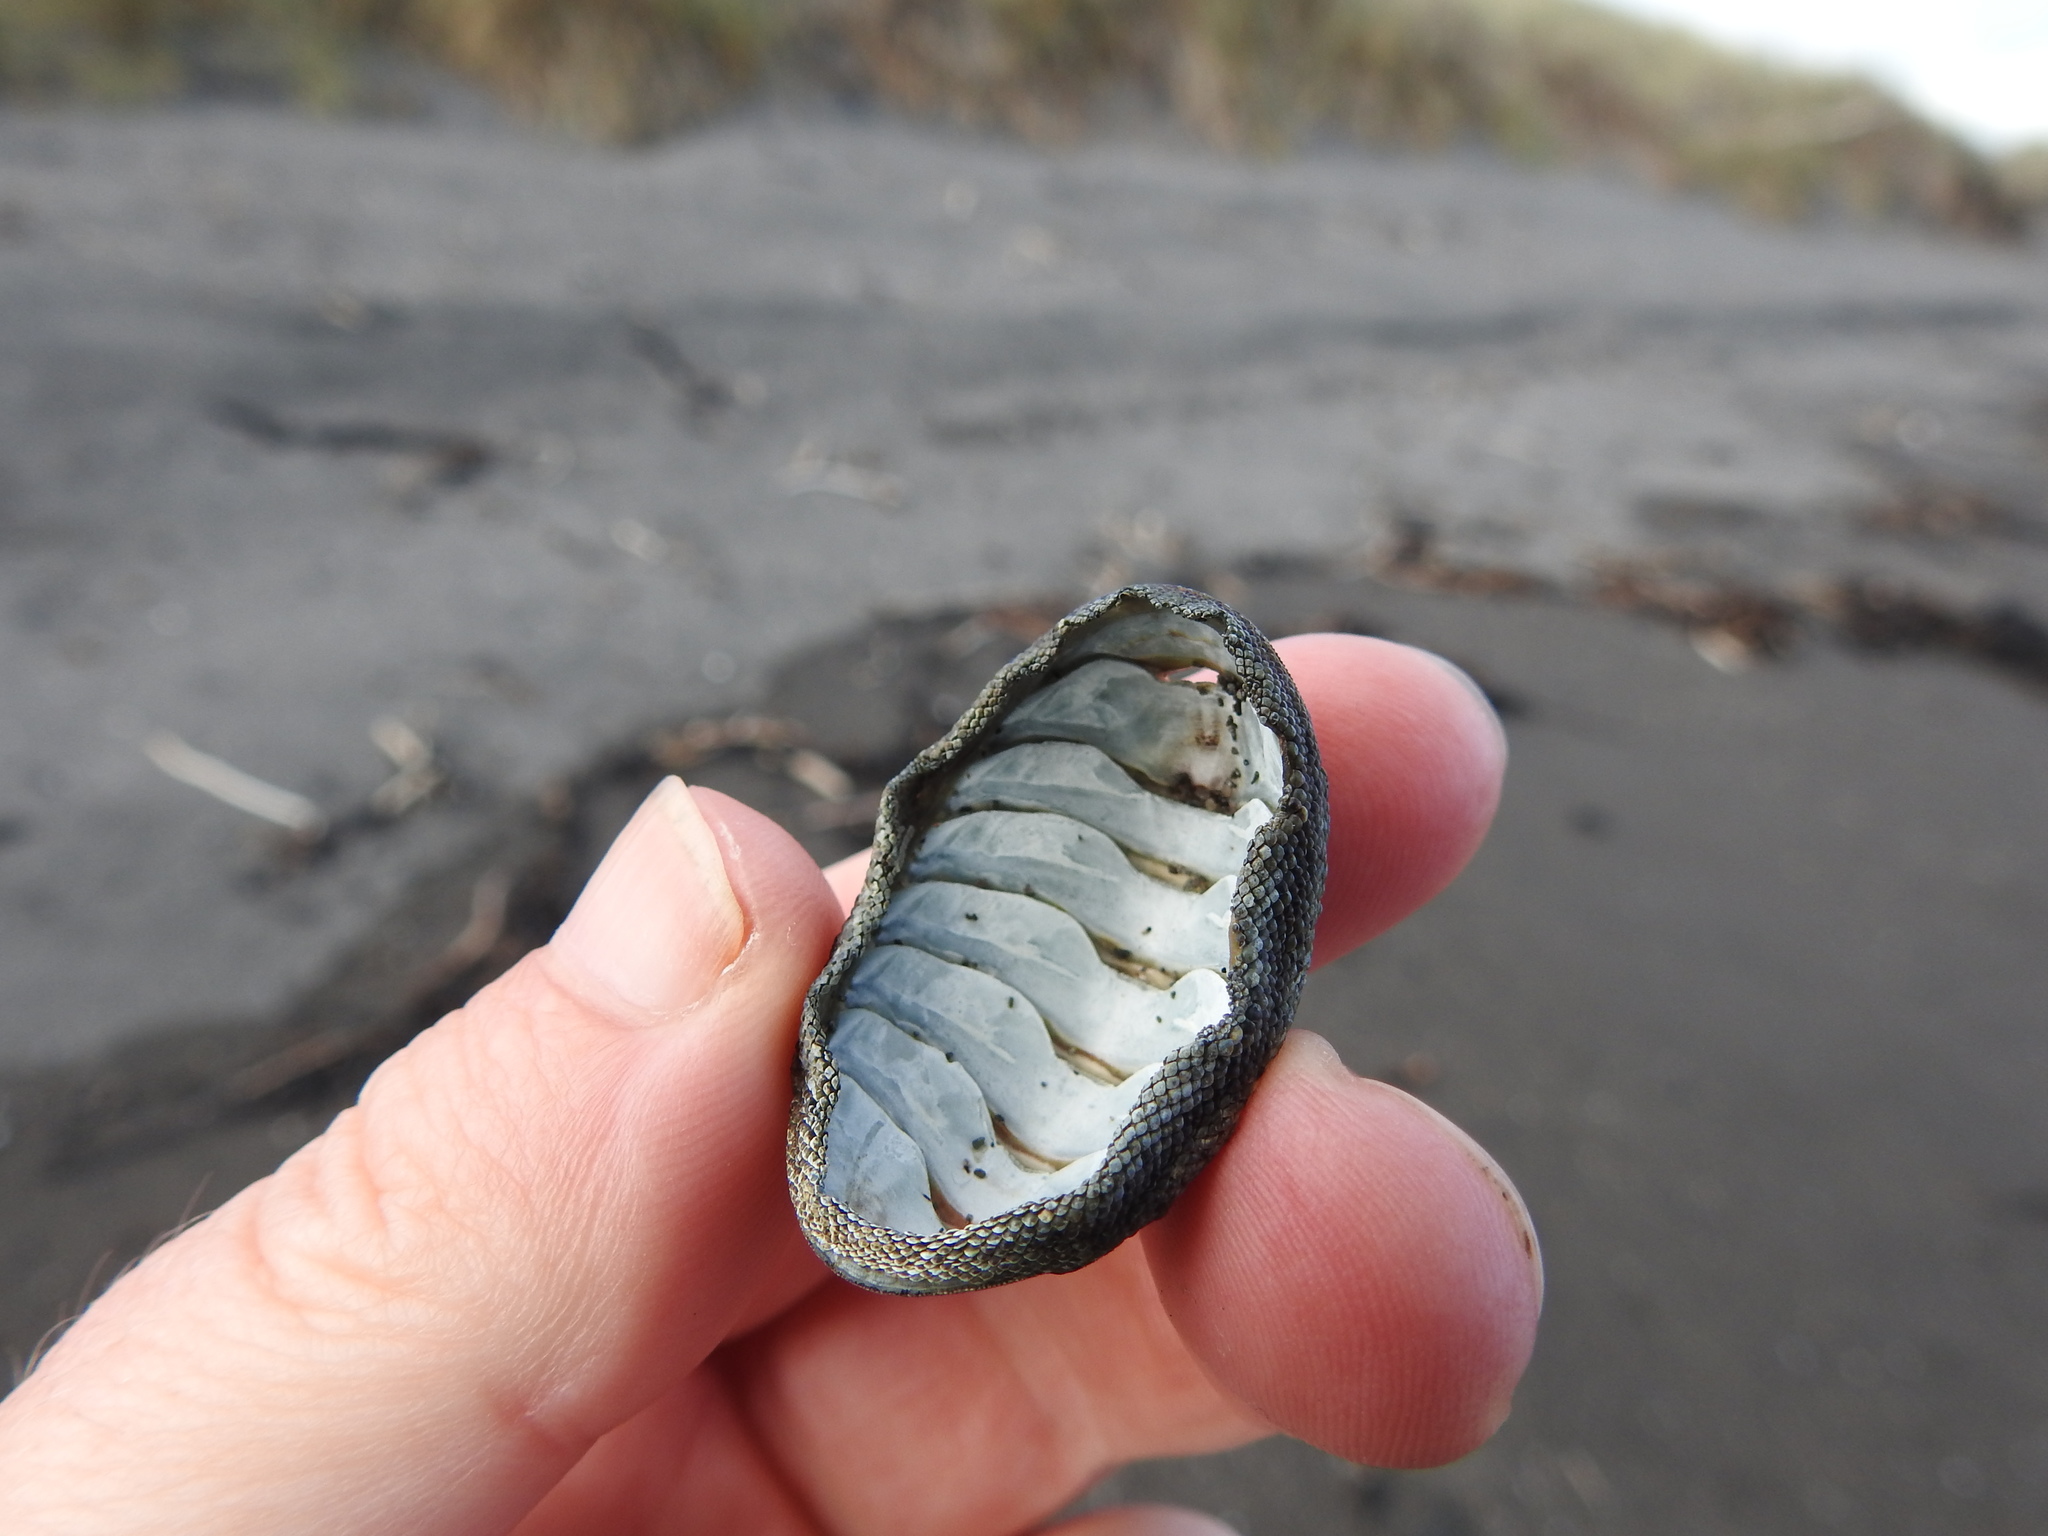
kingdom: Animalia
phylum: Mollusca
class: Polyplacophora
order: Chitonida
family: Chitonidae
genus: Chiton
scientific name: Chiton glaucus
